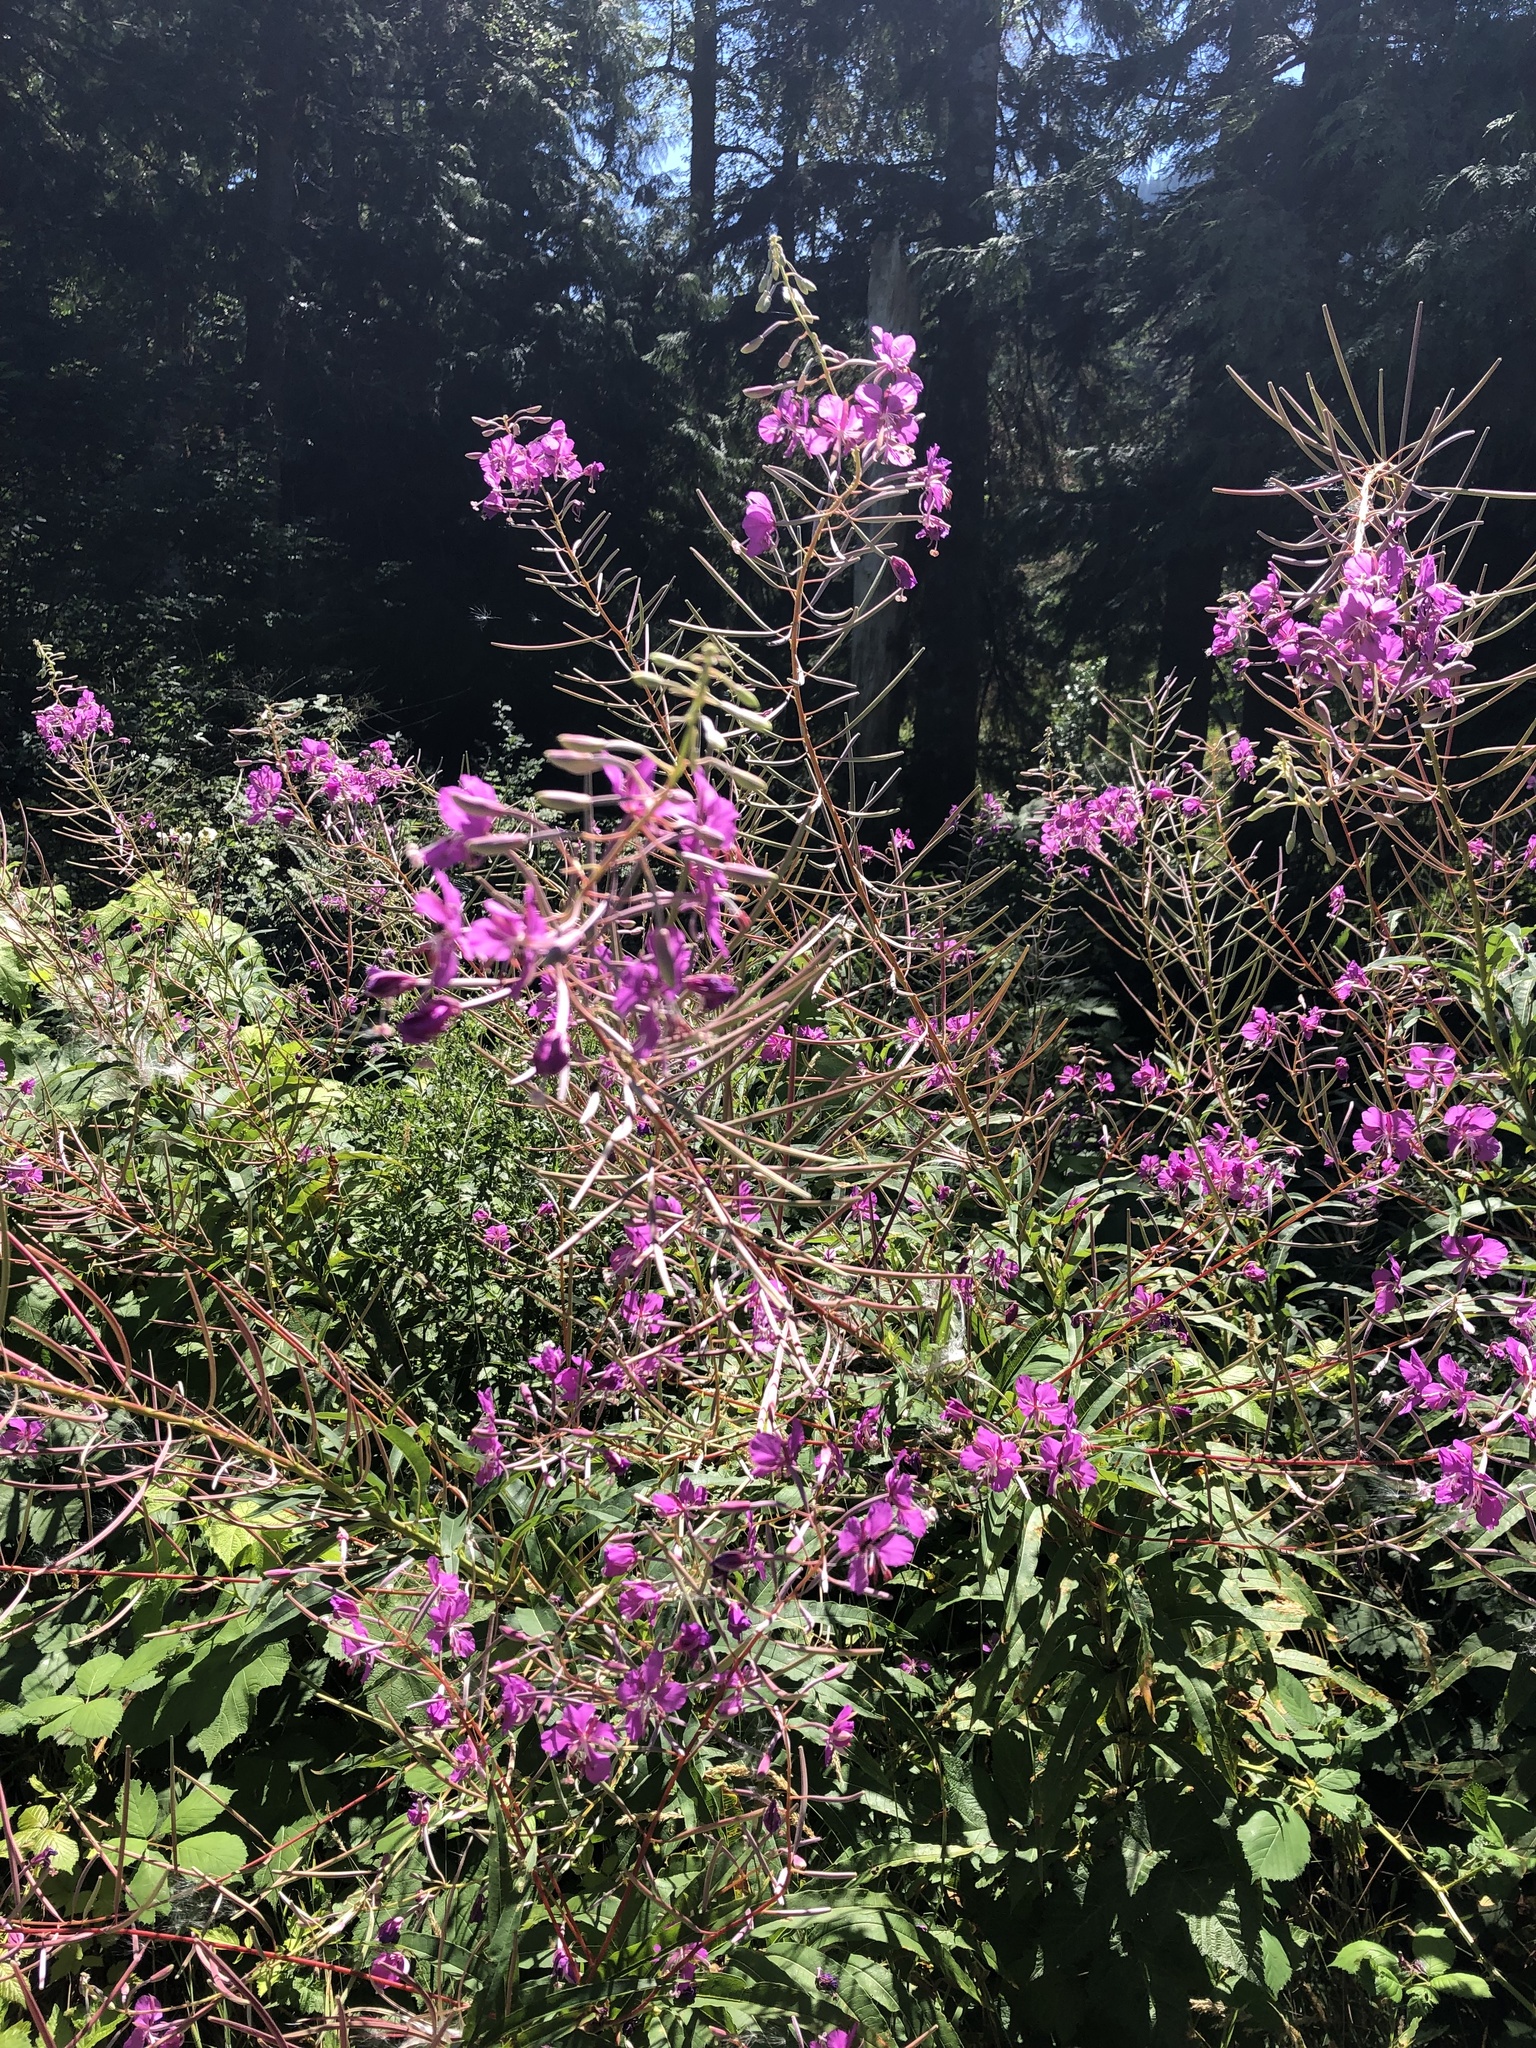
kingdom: Plantae
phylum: Tracheophyta
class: Magnoliopsida
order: Myrtales
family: Onagraceae
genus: Chamaenerion
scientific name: Chamaenerion angustifolium
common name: Fireweed
